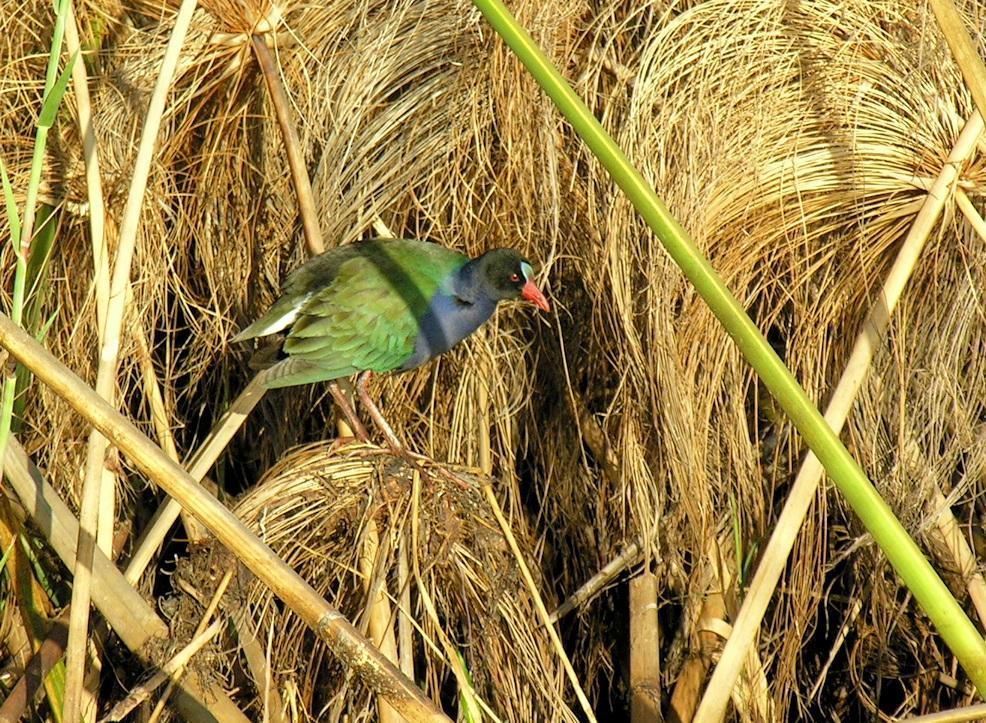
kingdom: Animalia
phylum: Chordata
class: Aves
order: Gruiformes
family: Rallidae
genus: Porphyrio
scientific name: Porphyrio alleni
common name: Allen's gallinule
